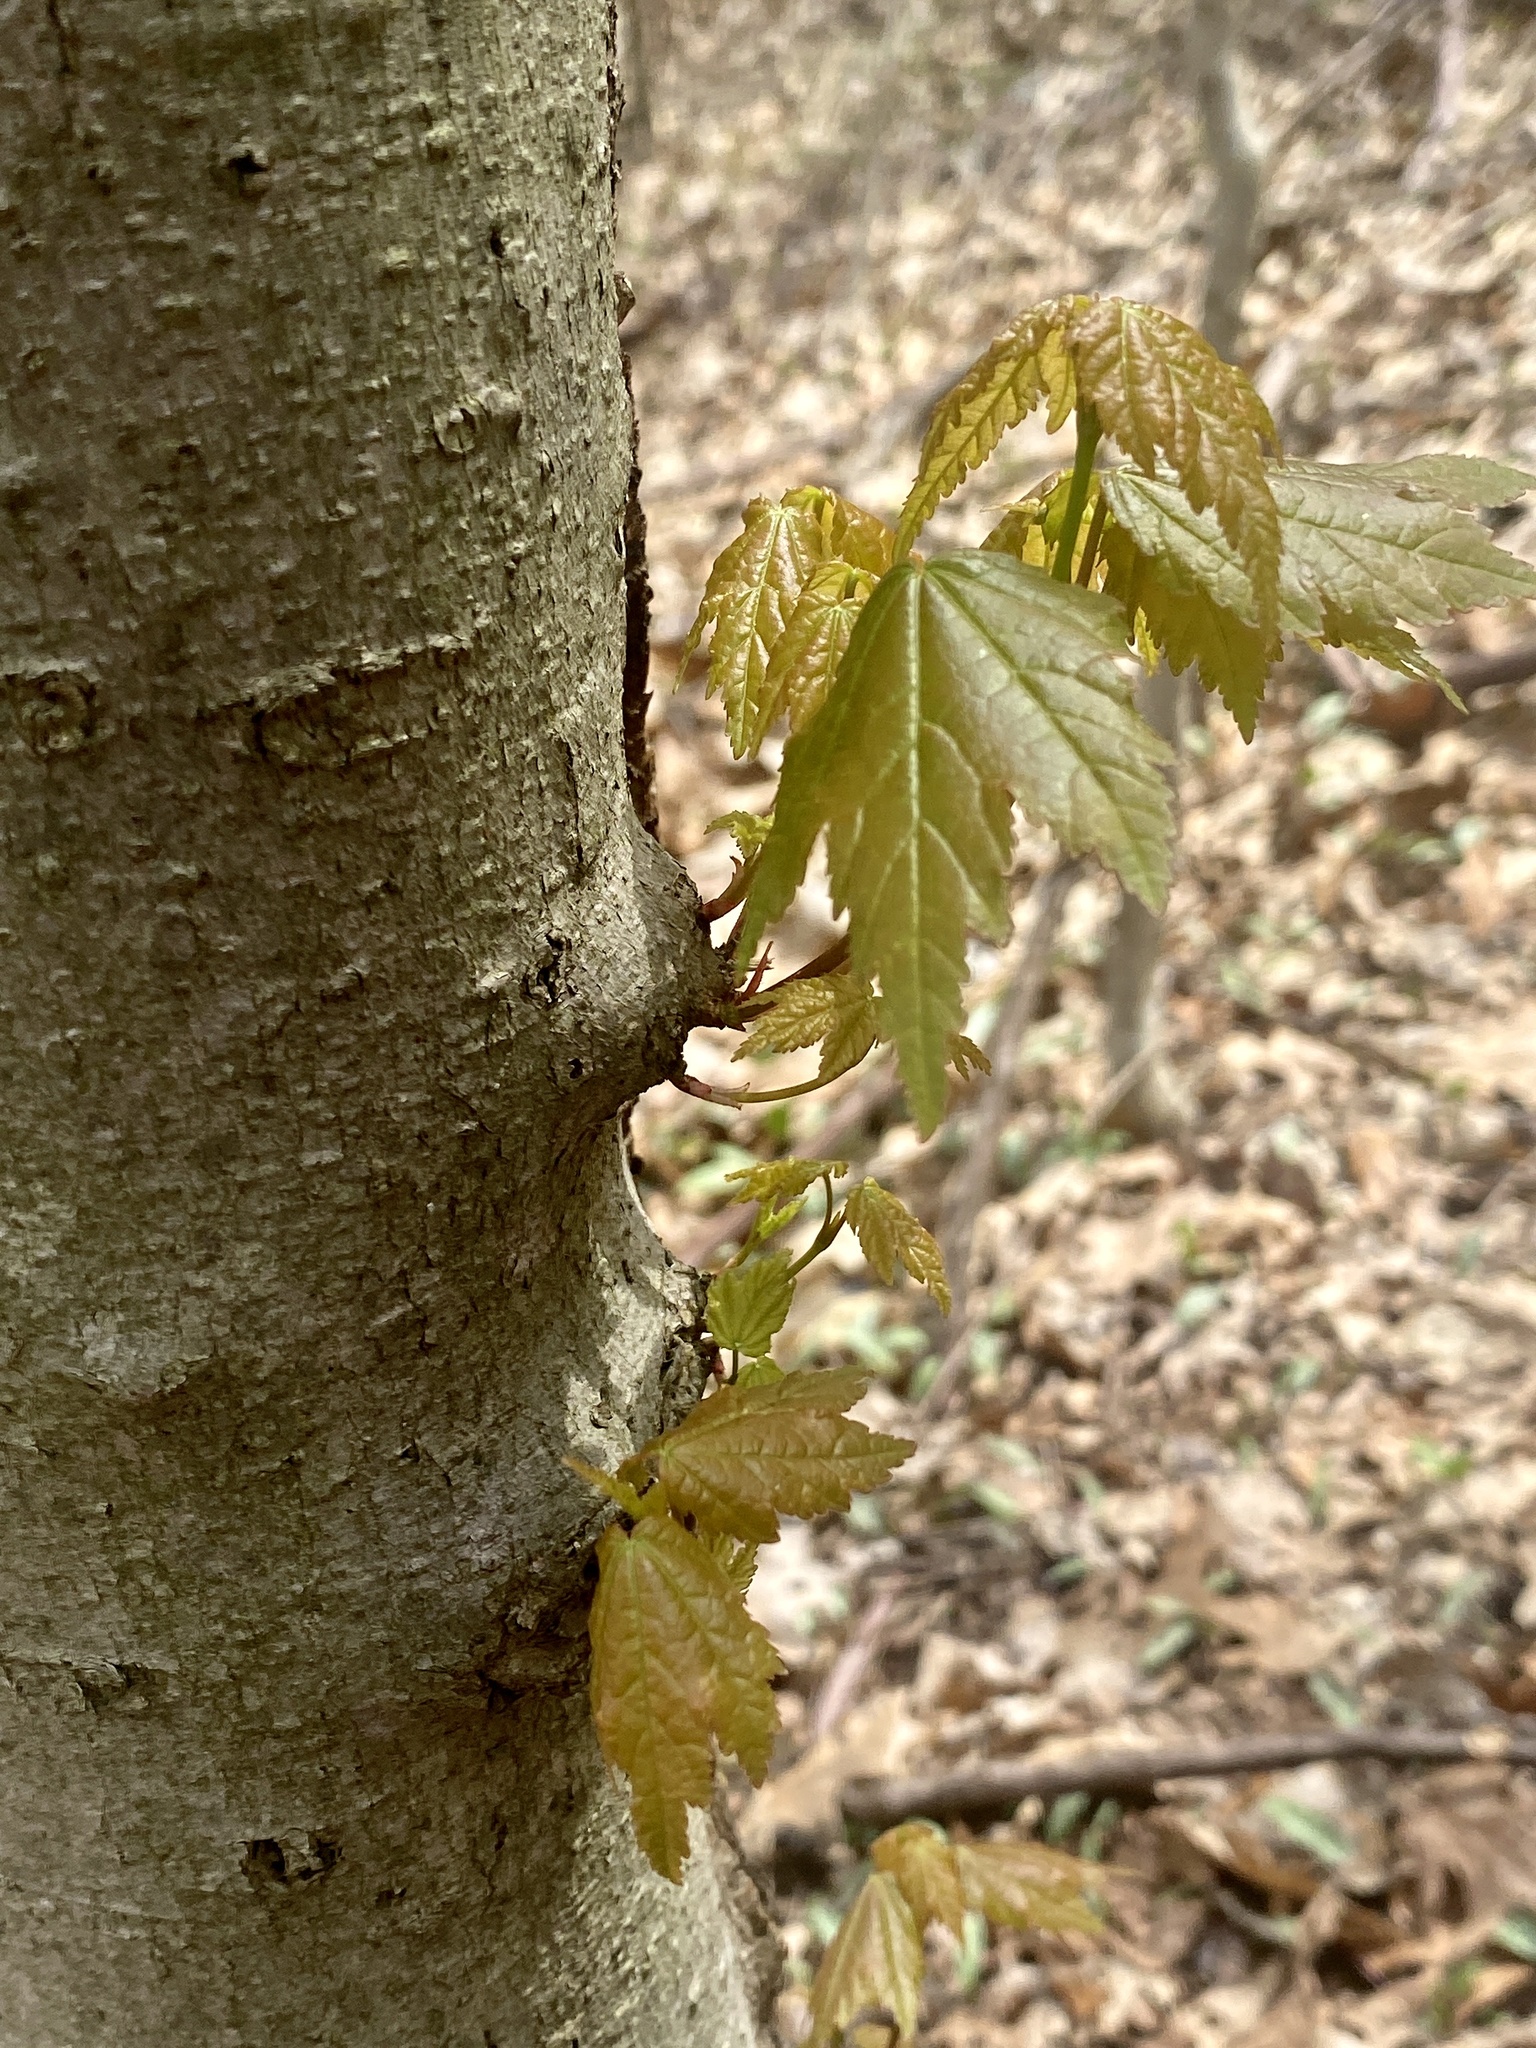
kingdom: Plantae
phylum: Tracheophyta
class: Magnoliopsida
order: Sapindales
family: Sapindaceae
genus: Acer
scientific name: Acer rubrum
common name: Red maple
